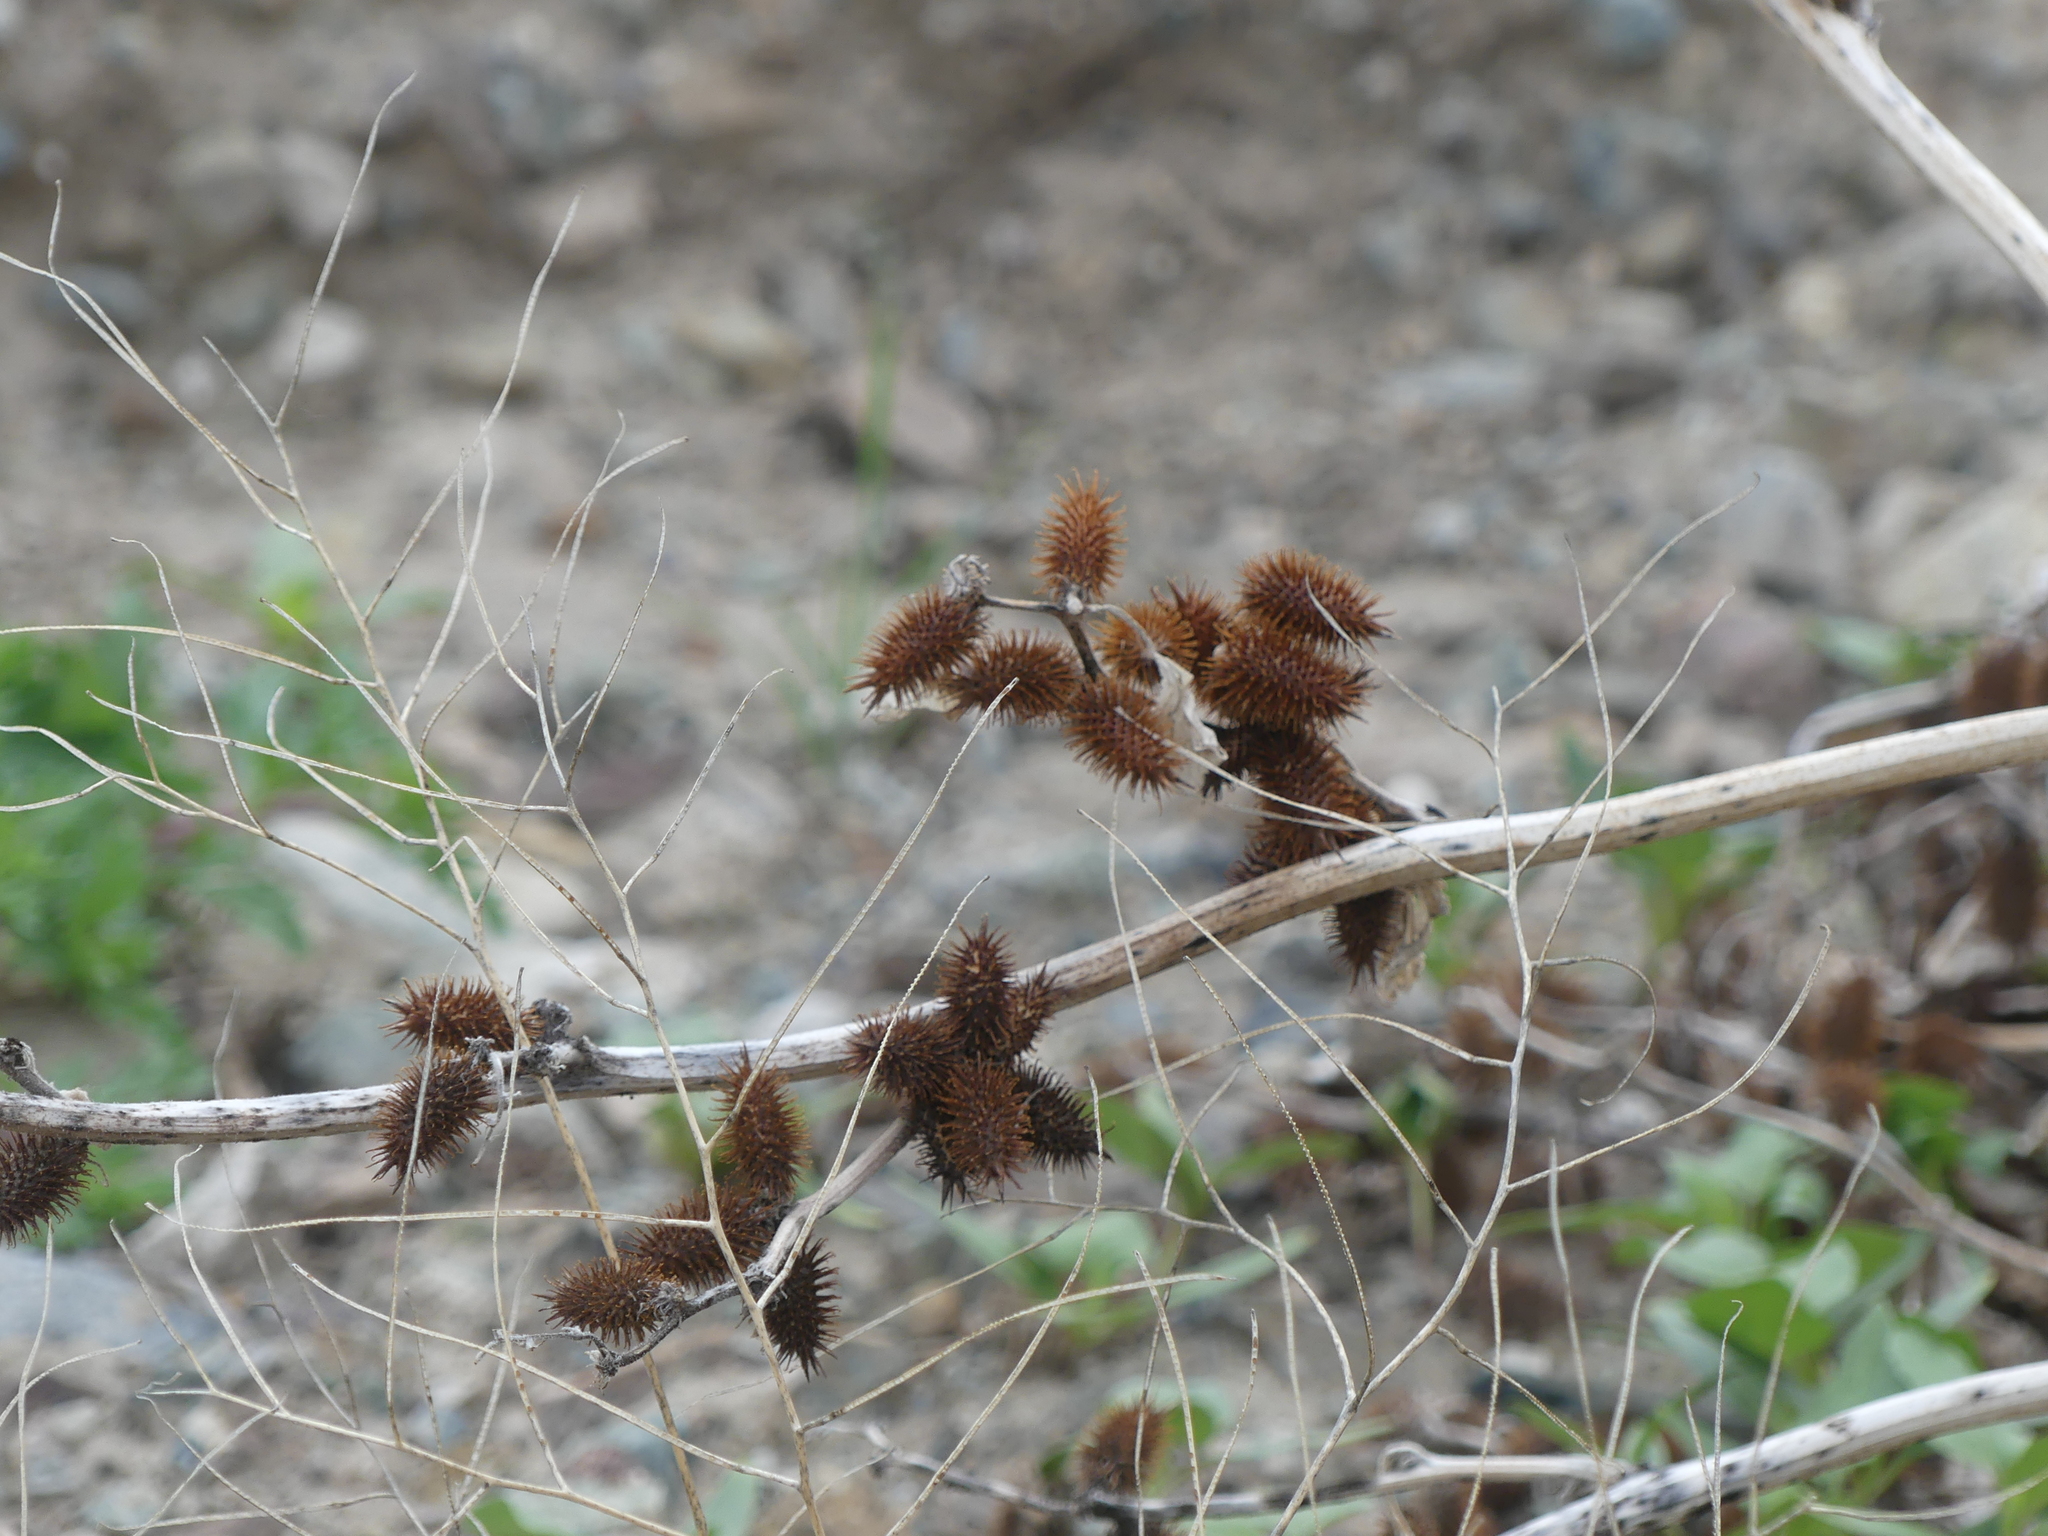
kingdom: Plantae
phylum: Tracheophyta
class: Magnoliopsida
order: Asterales
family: Asteraceae
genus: Xanthium
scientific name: Xanthium strumarium
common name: Rough cocklebur
